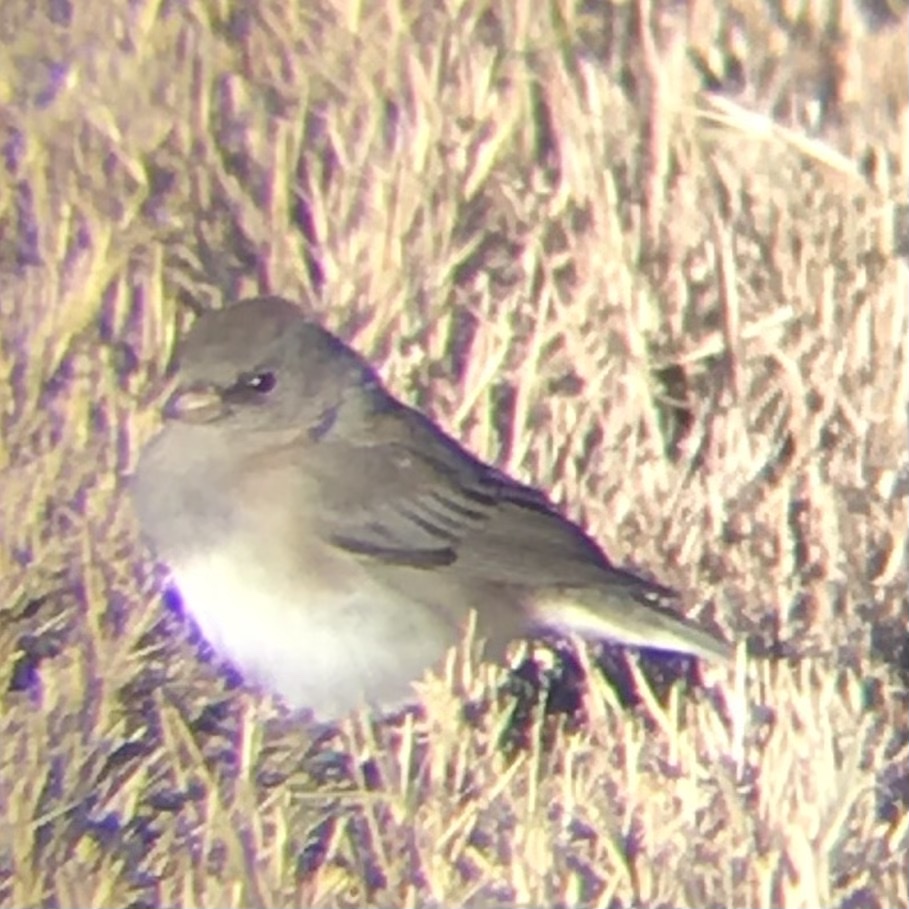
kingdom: Animalia
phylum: Chordata
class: Aves
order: Passeriformes
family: Passerellidae
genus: Junco
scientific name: Junco hyemalis
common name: Dark-eyed junco
